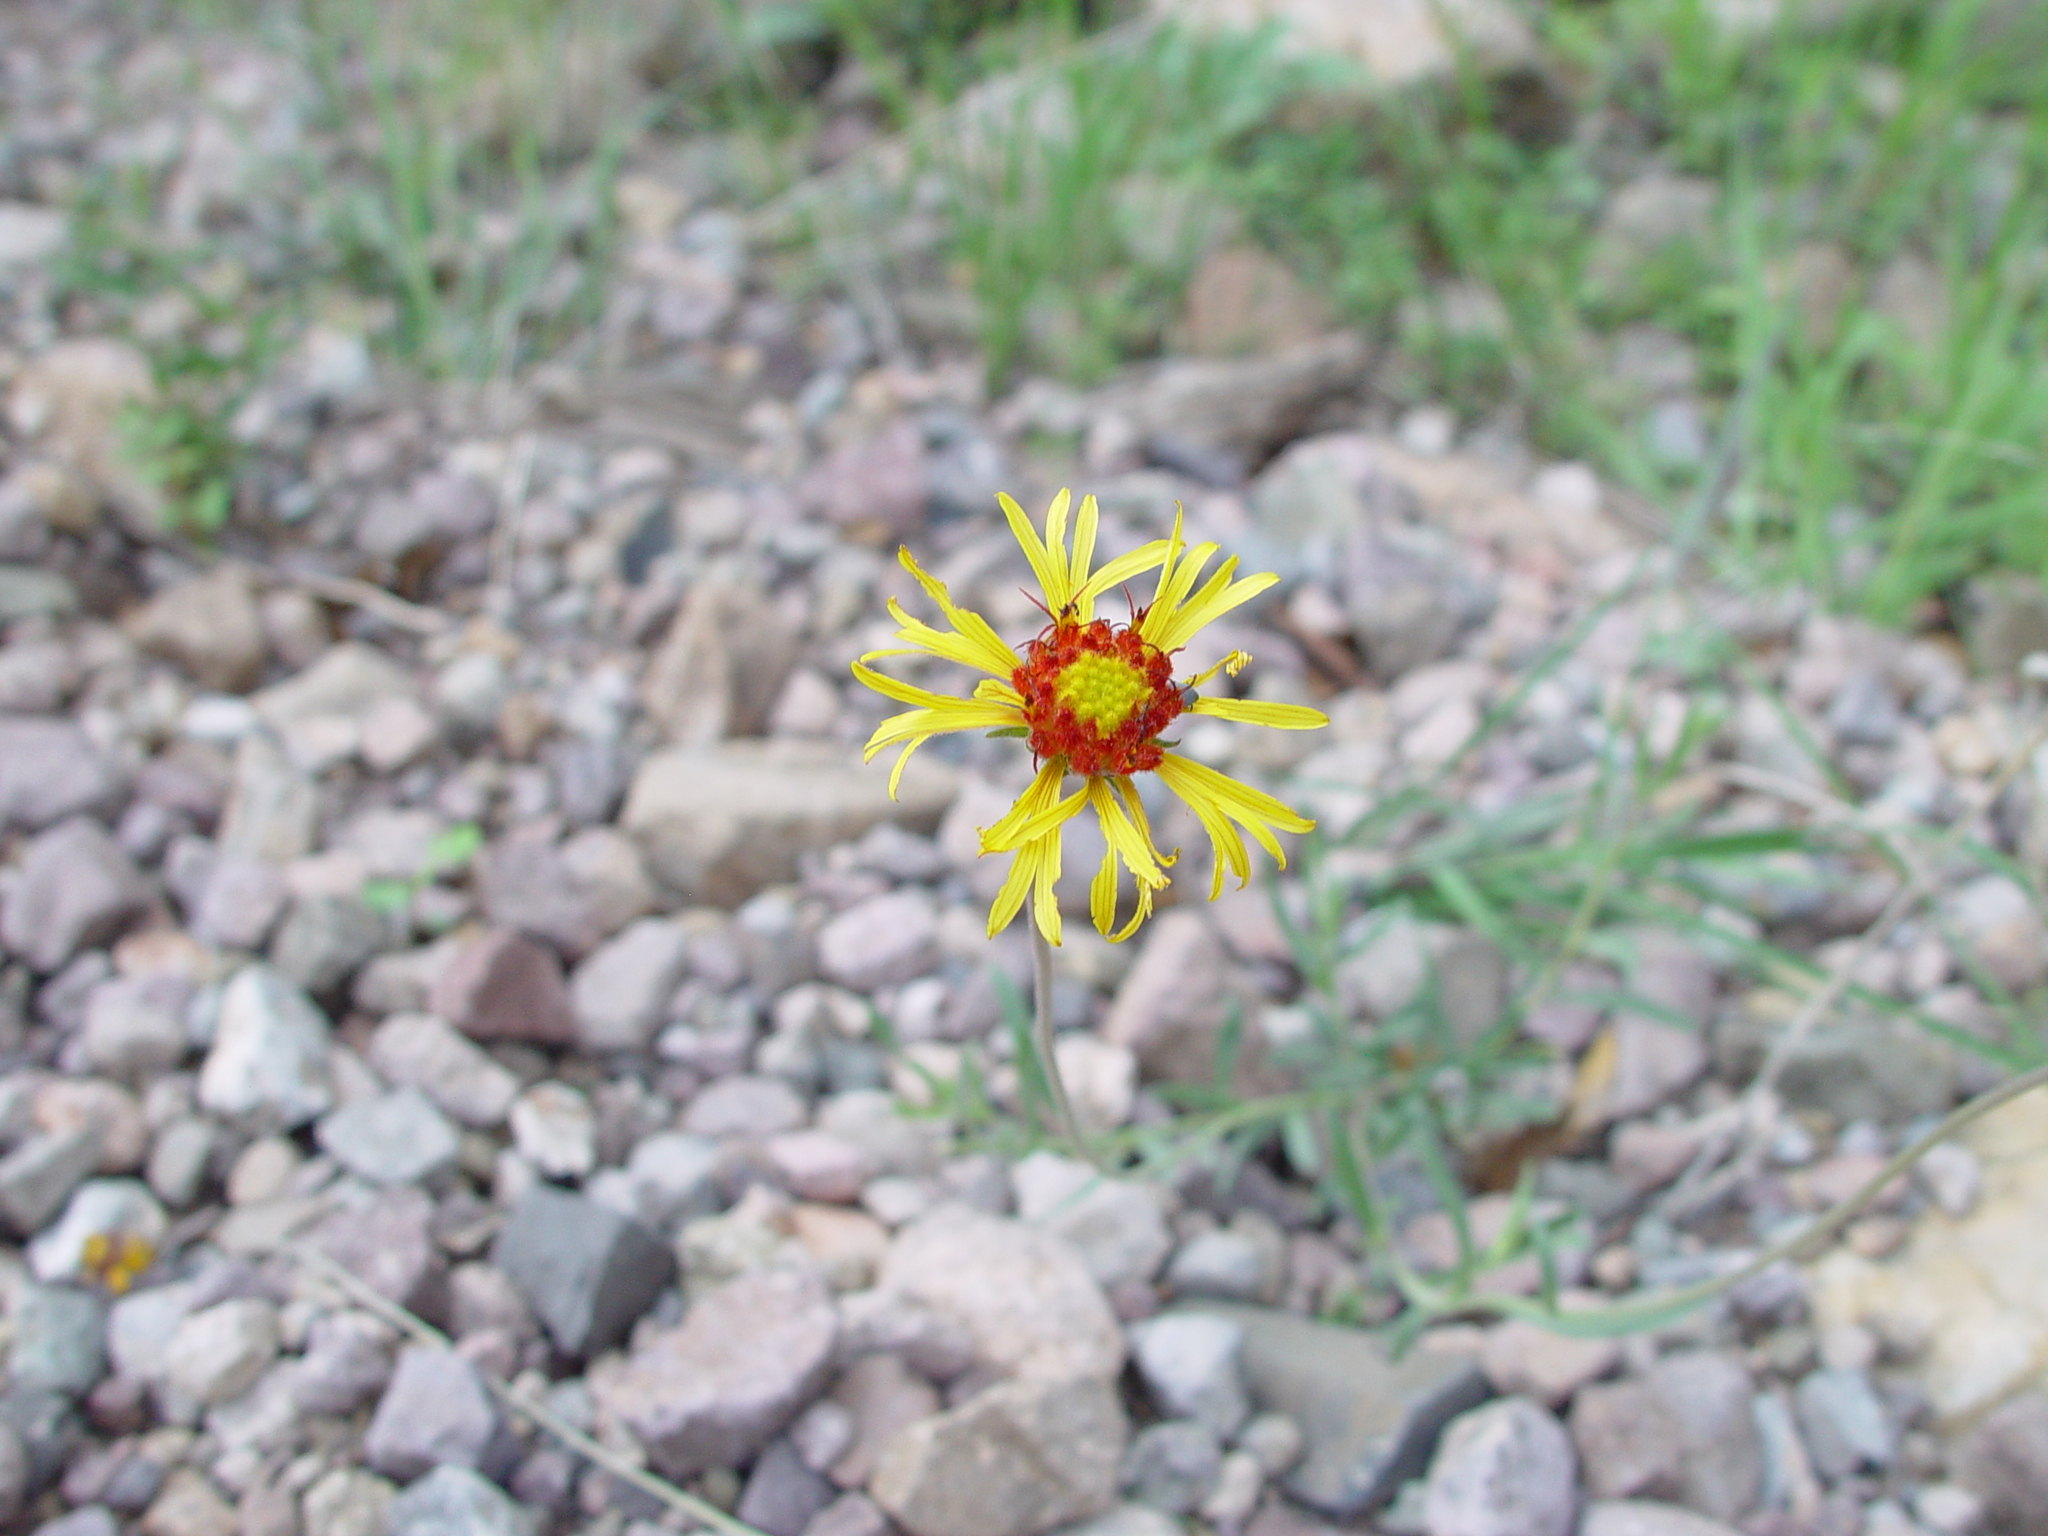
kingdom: Plantae
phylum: Tracheophyta
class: Magnoliopsida
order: Asterales
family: Asteraceae
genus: Gaillardia
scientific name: Gaillardia pinnatifida
